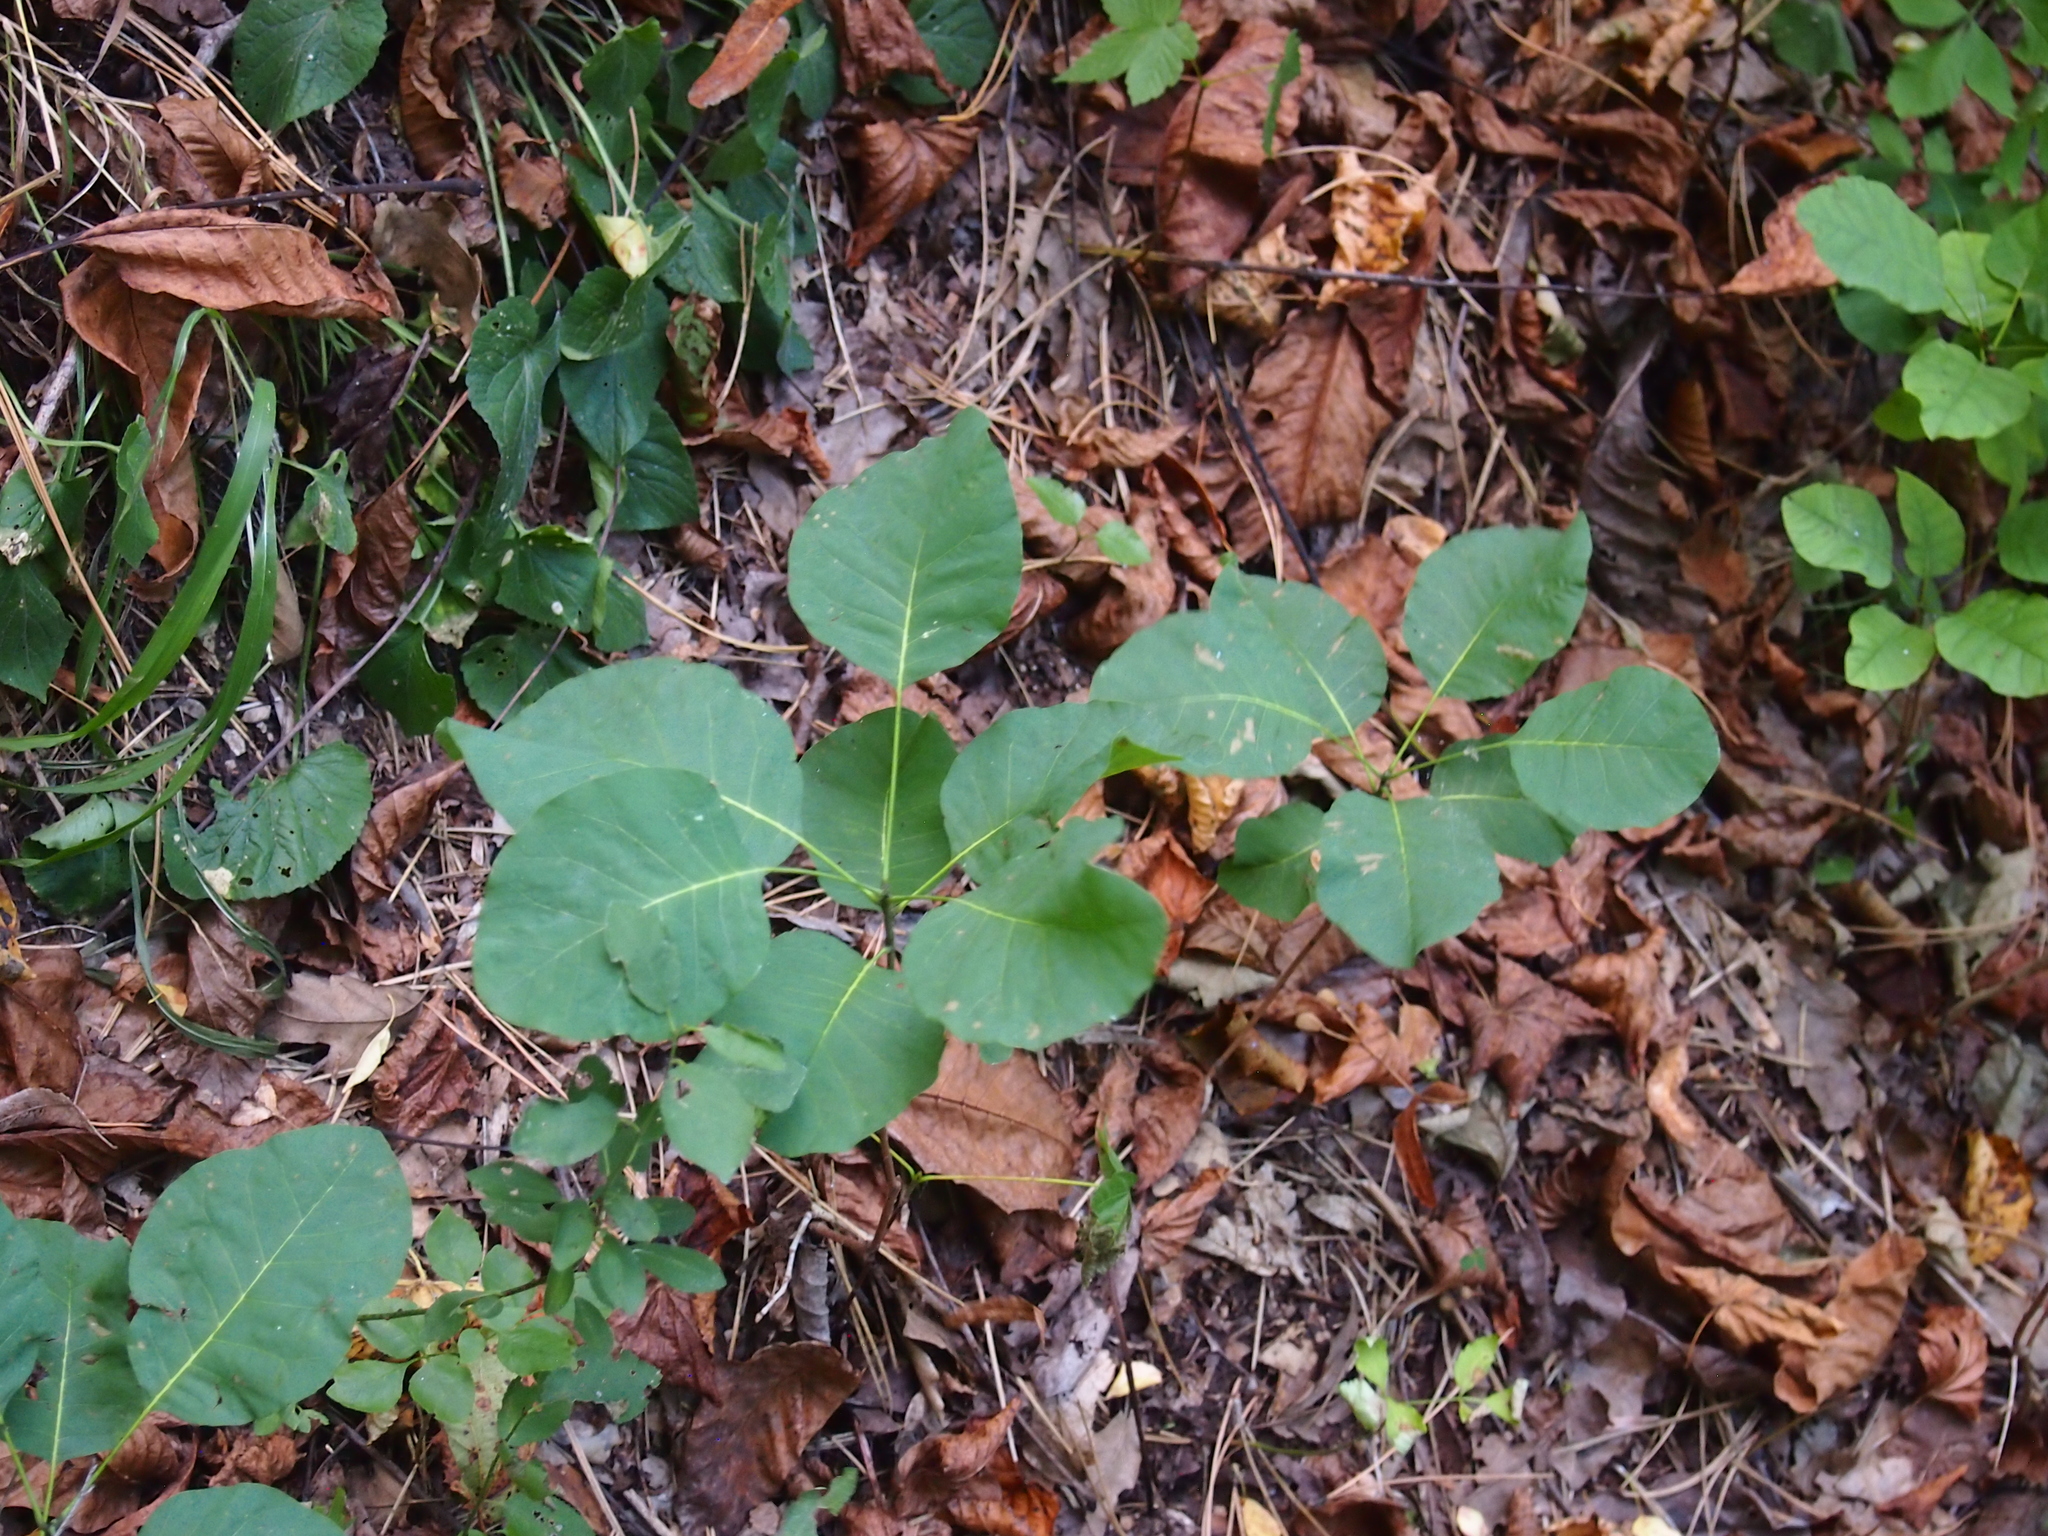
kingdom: Plantae
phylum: Tracheophyta
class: Magnoliopsida
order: Sapindales
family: Anacardiaceae
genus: Cotinus
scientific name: Cotinus coggygria
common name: Smoke-tree
